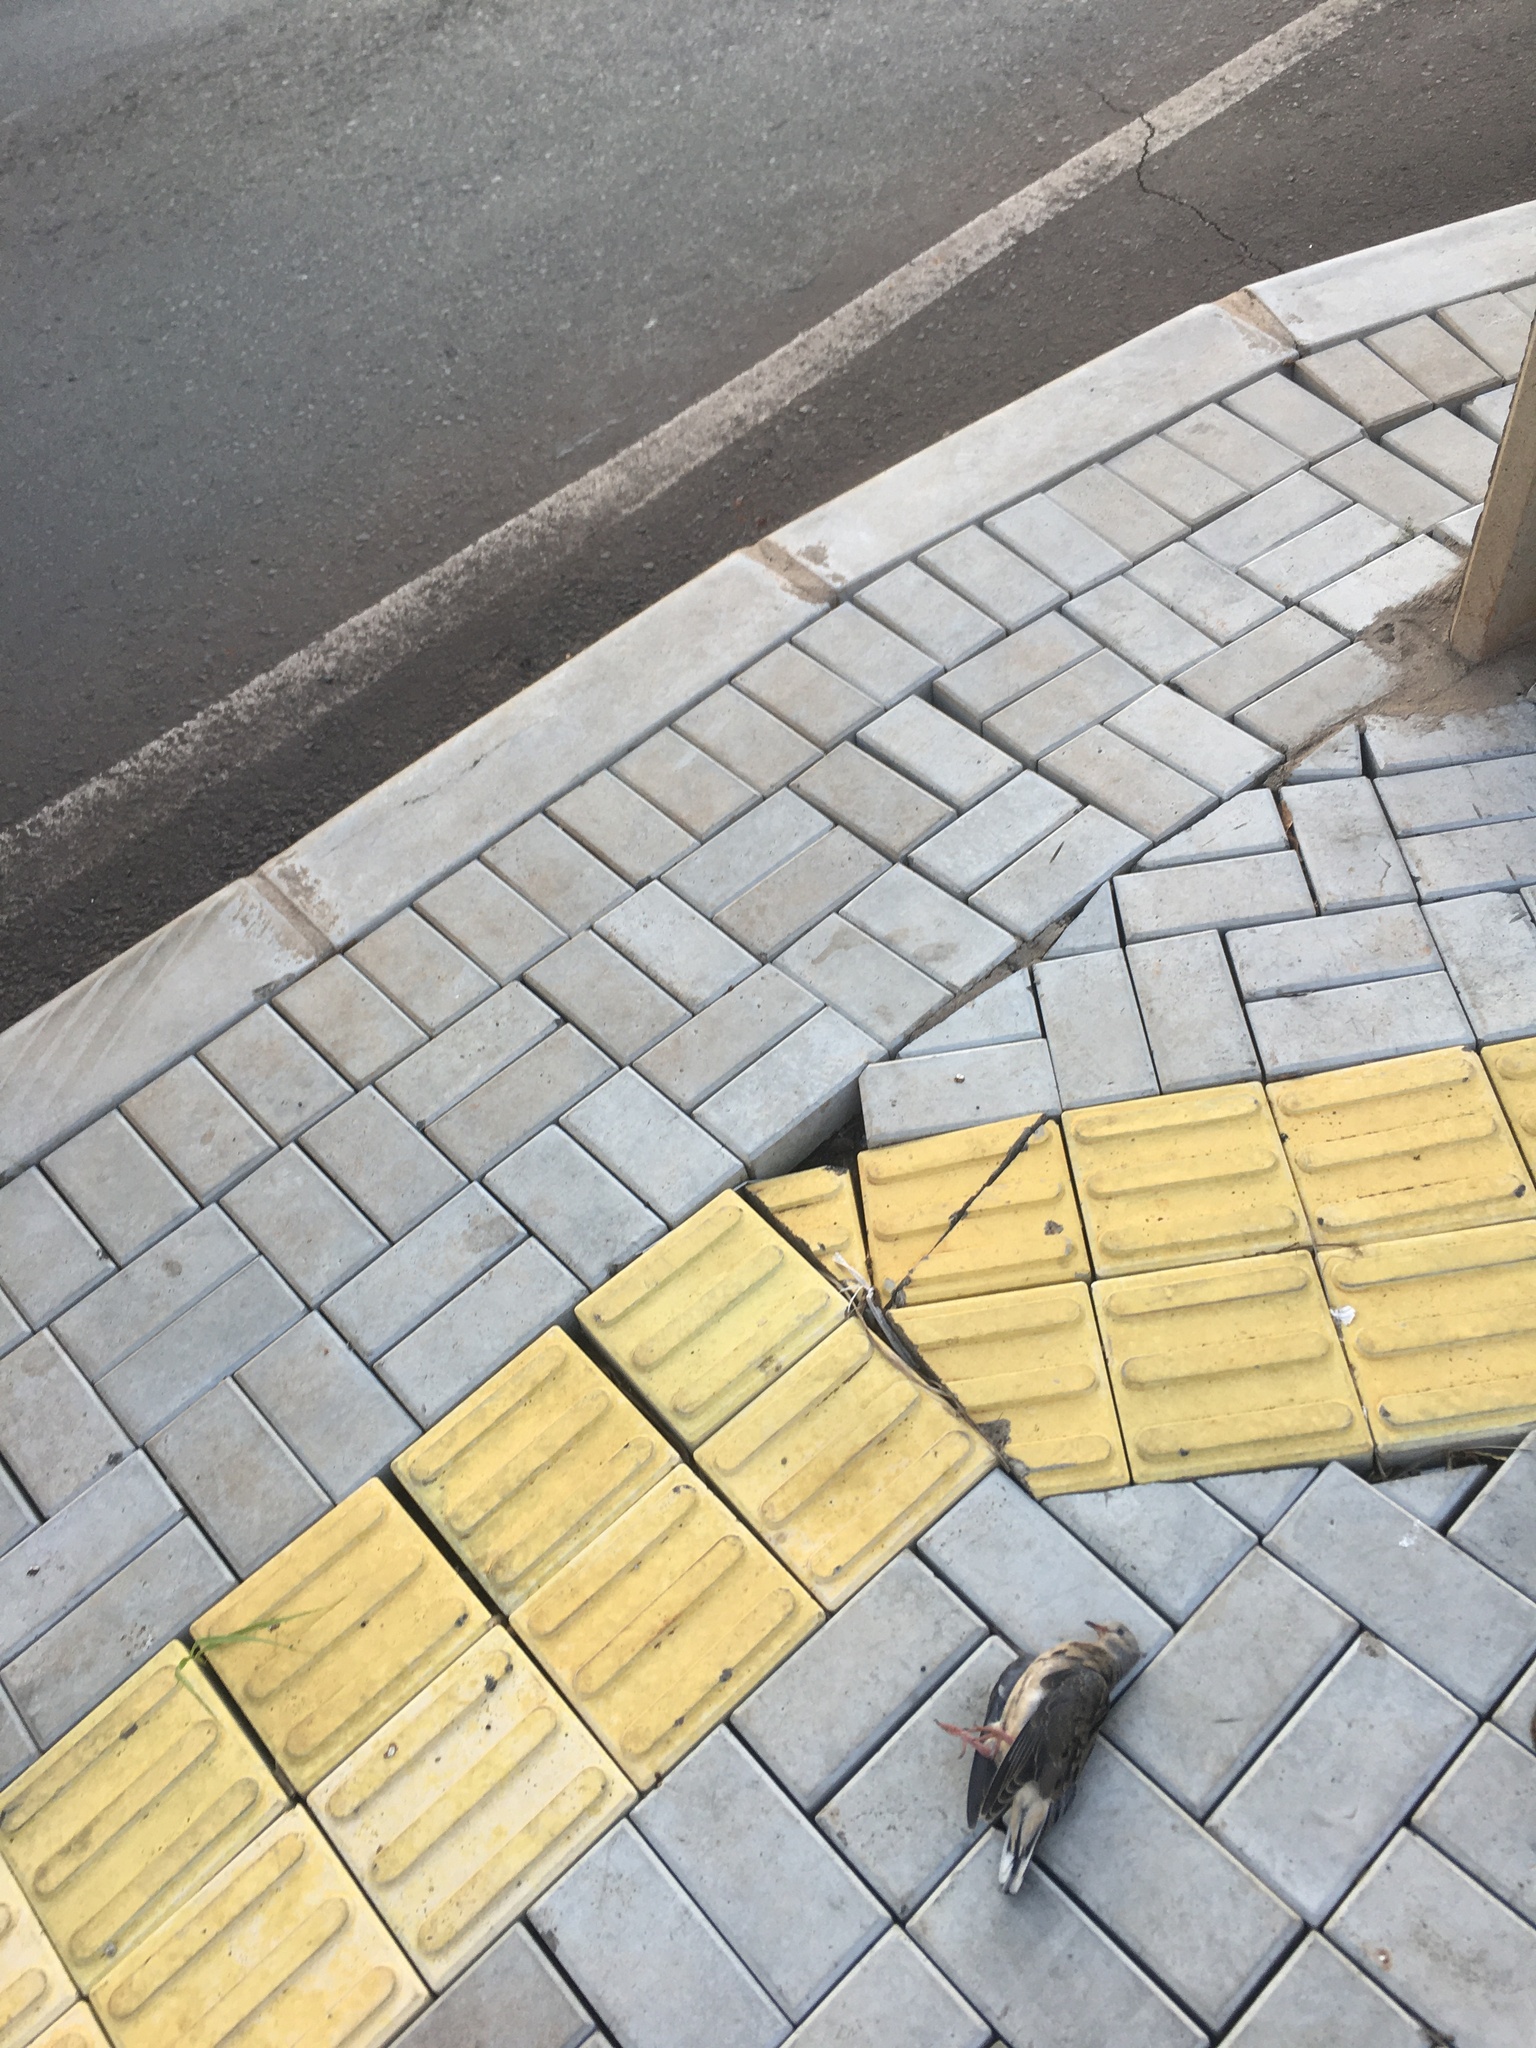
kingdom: Animalia
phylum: Chordata
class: Aves
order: Columbiformes
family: Columbidae
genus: Zenaida
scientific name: Zenaida auriculata
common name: Eared dove
